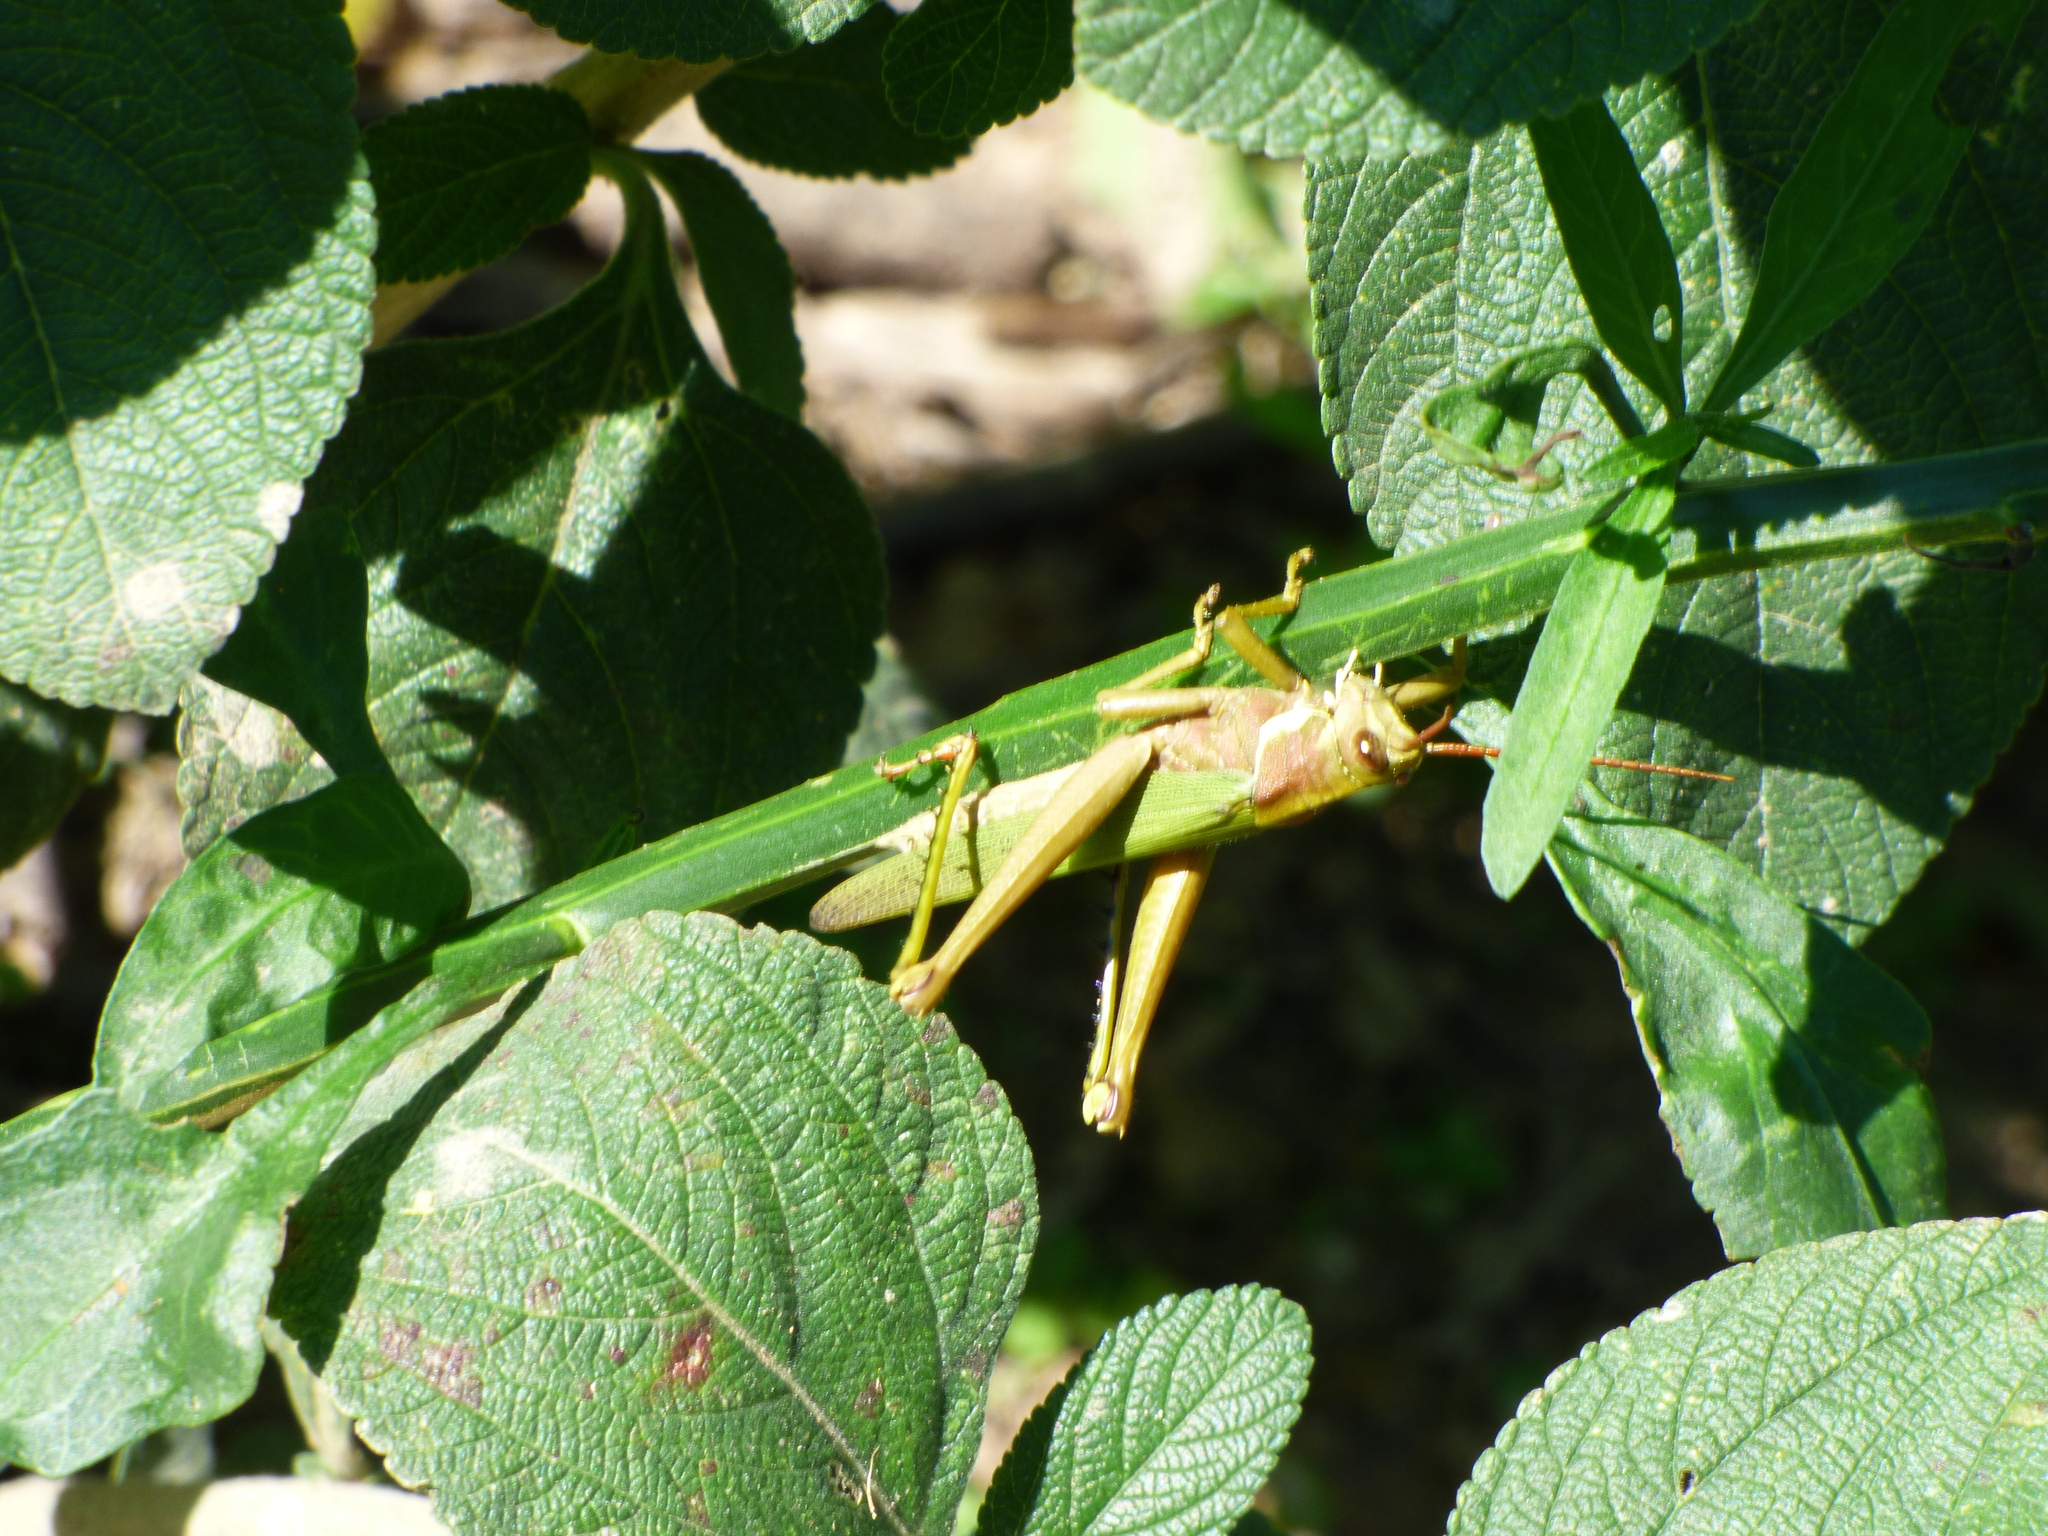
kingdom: Animalia
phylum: Arthropoda
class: Insecta
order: Orthoptera
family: Romaleidae
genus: Coryacris
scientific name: Coryacris angustipennis
